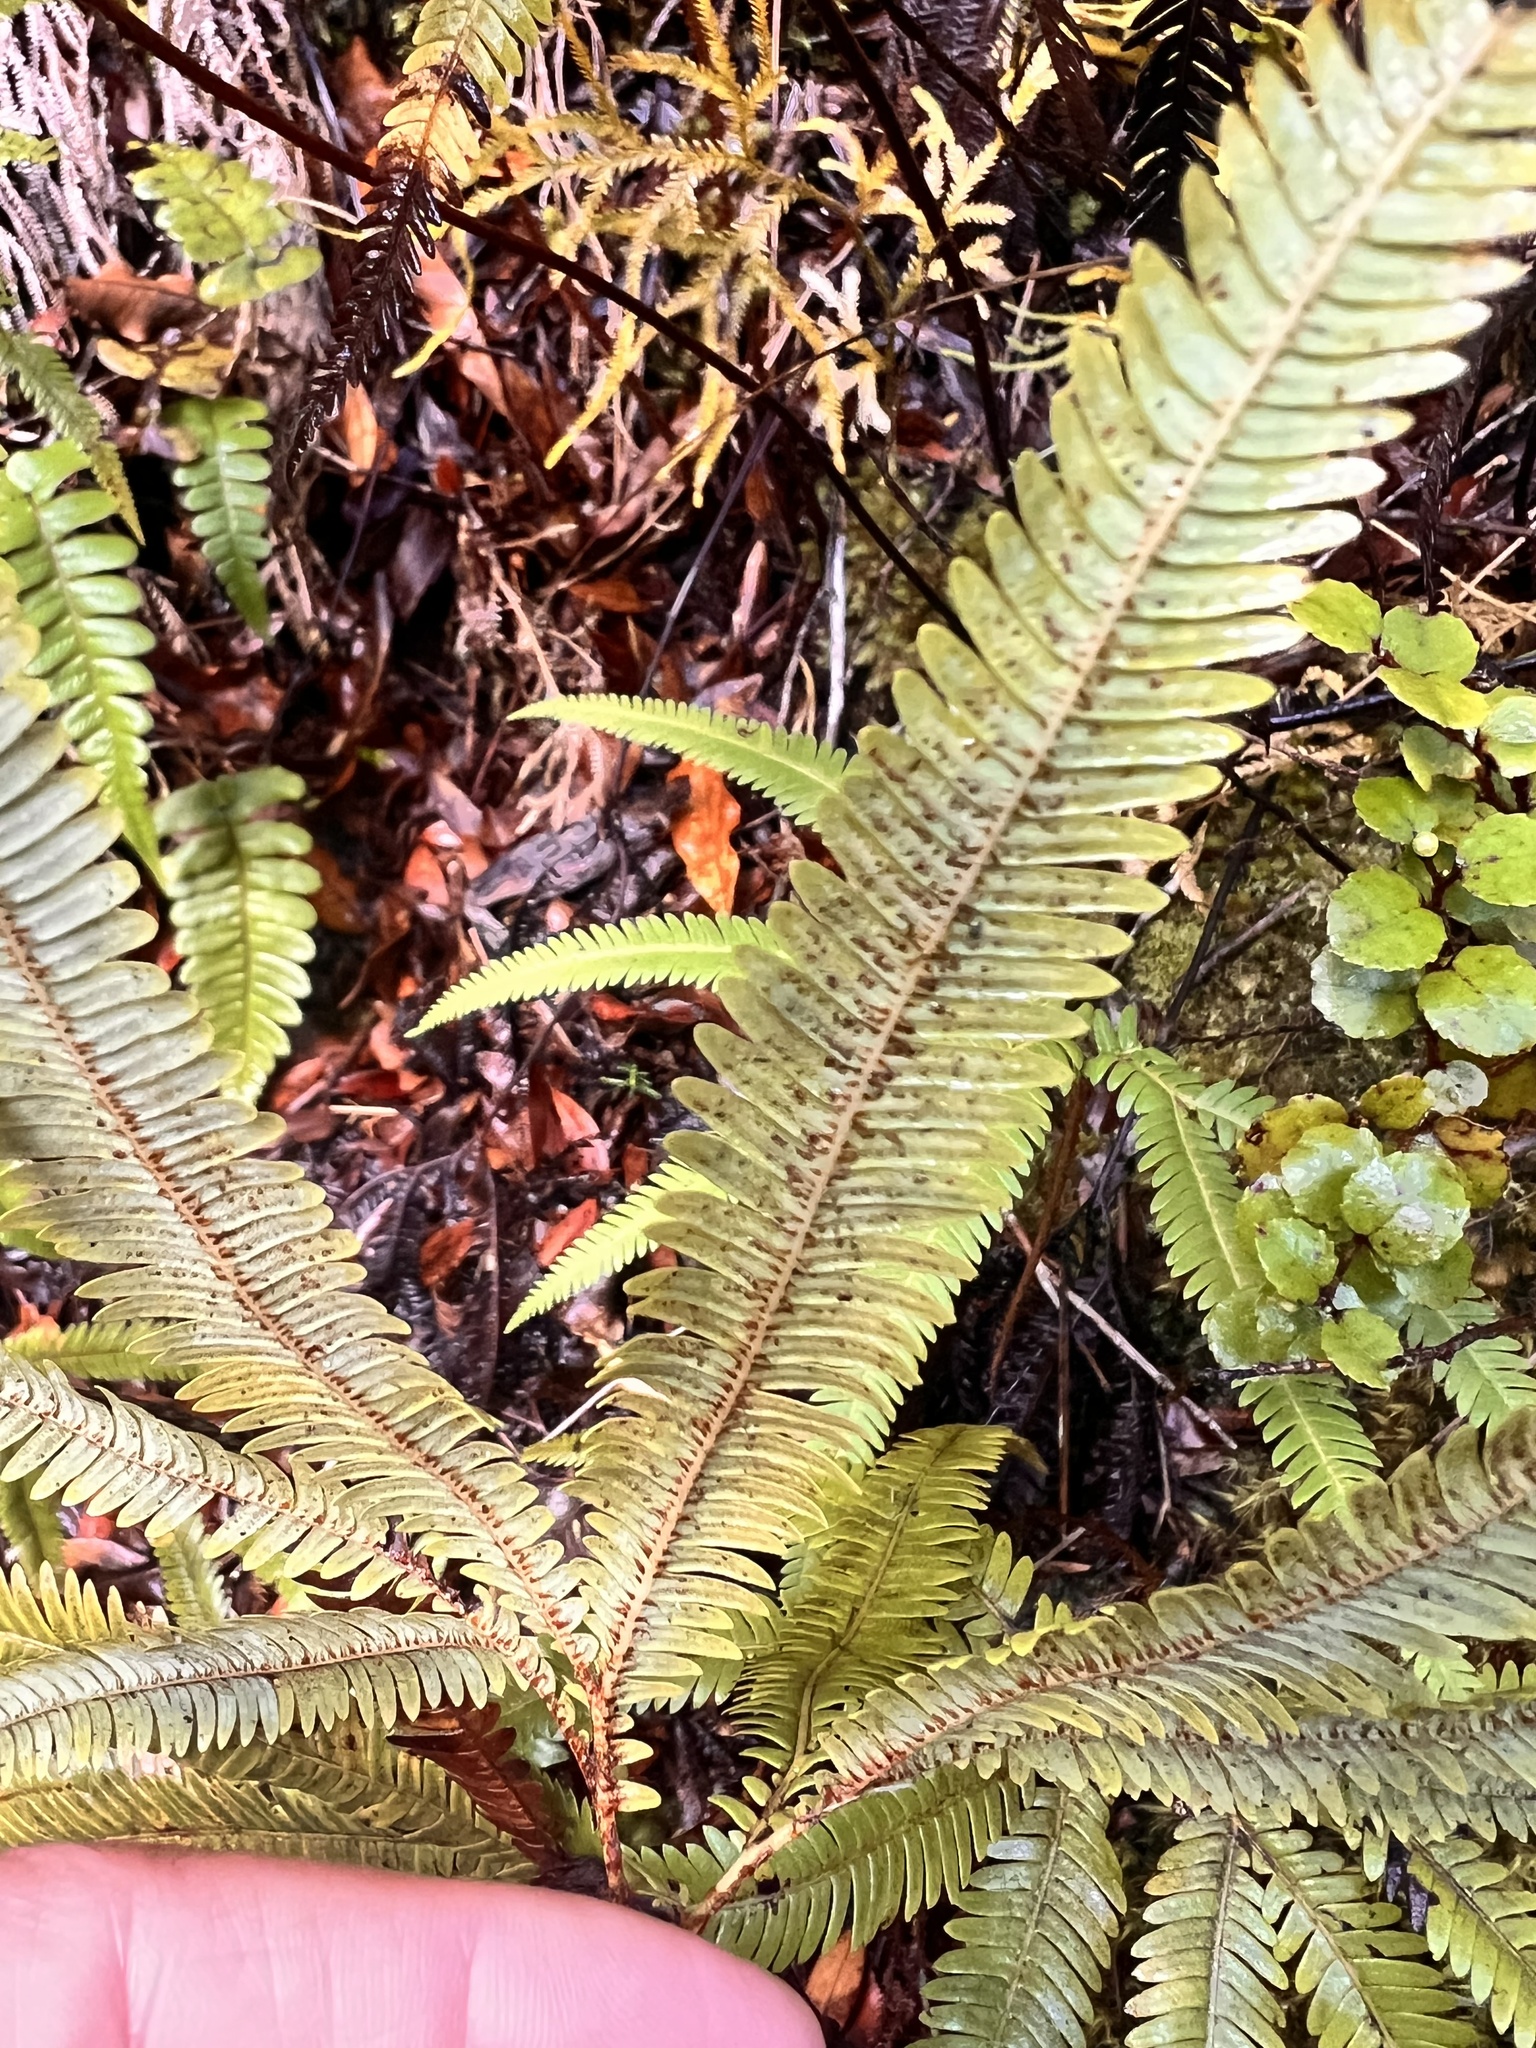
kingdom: Plantae
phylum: Tracheophyta
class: Polypodiopsida
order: Gleicheniales
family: Gleicheniaceae
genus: Sticherus
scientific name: Sticherus cunninghamii
